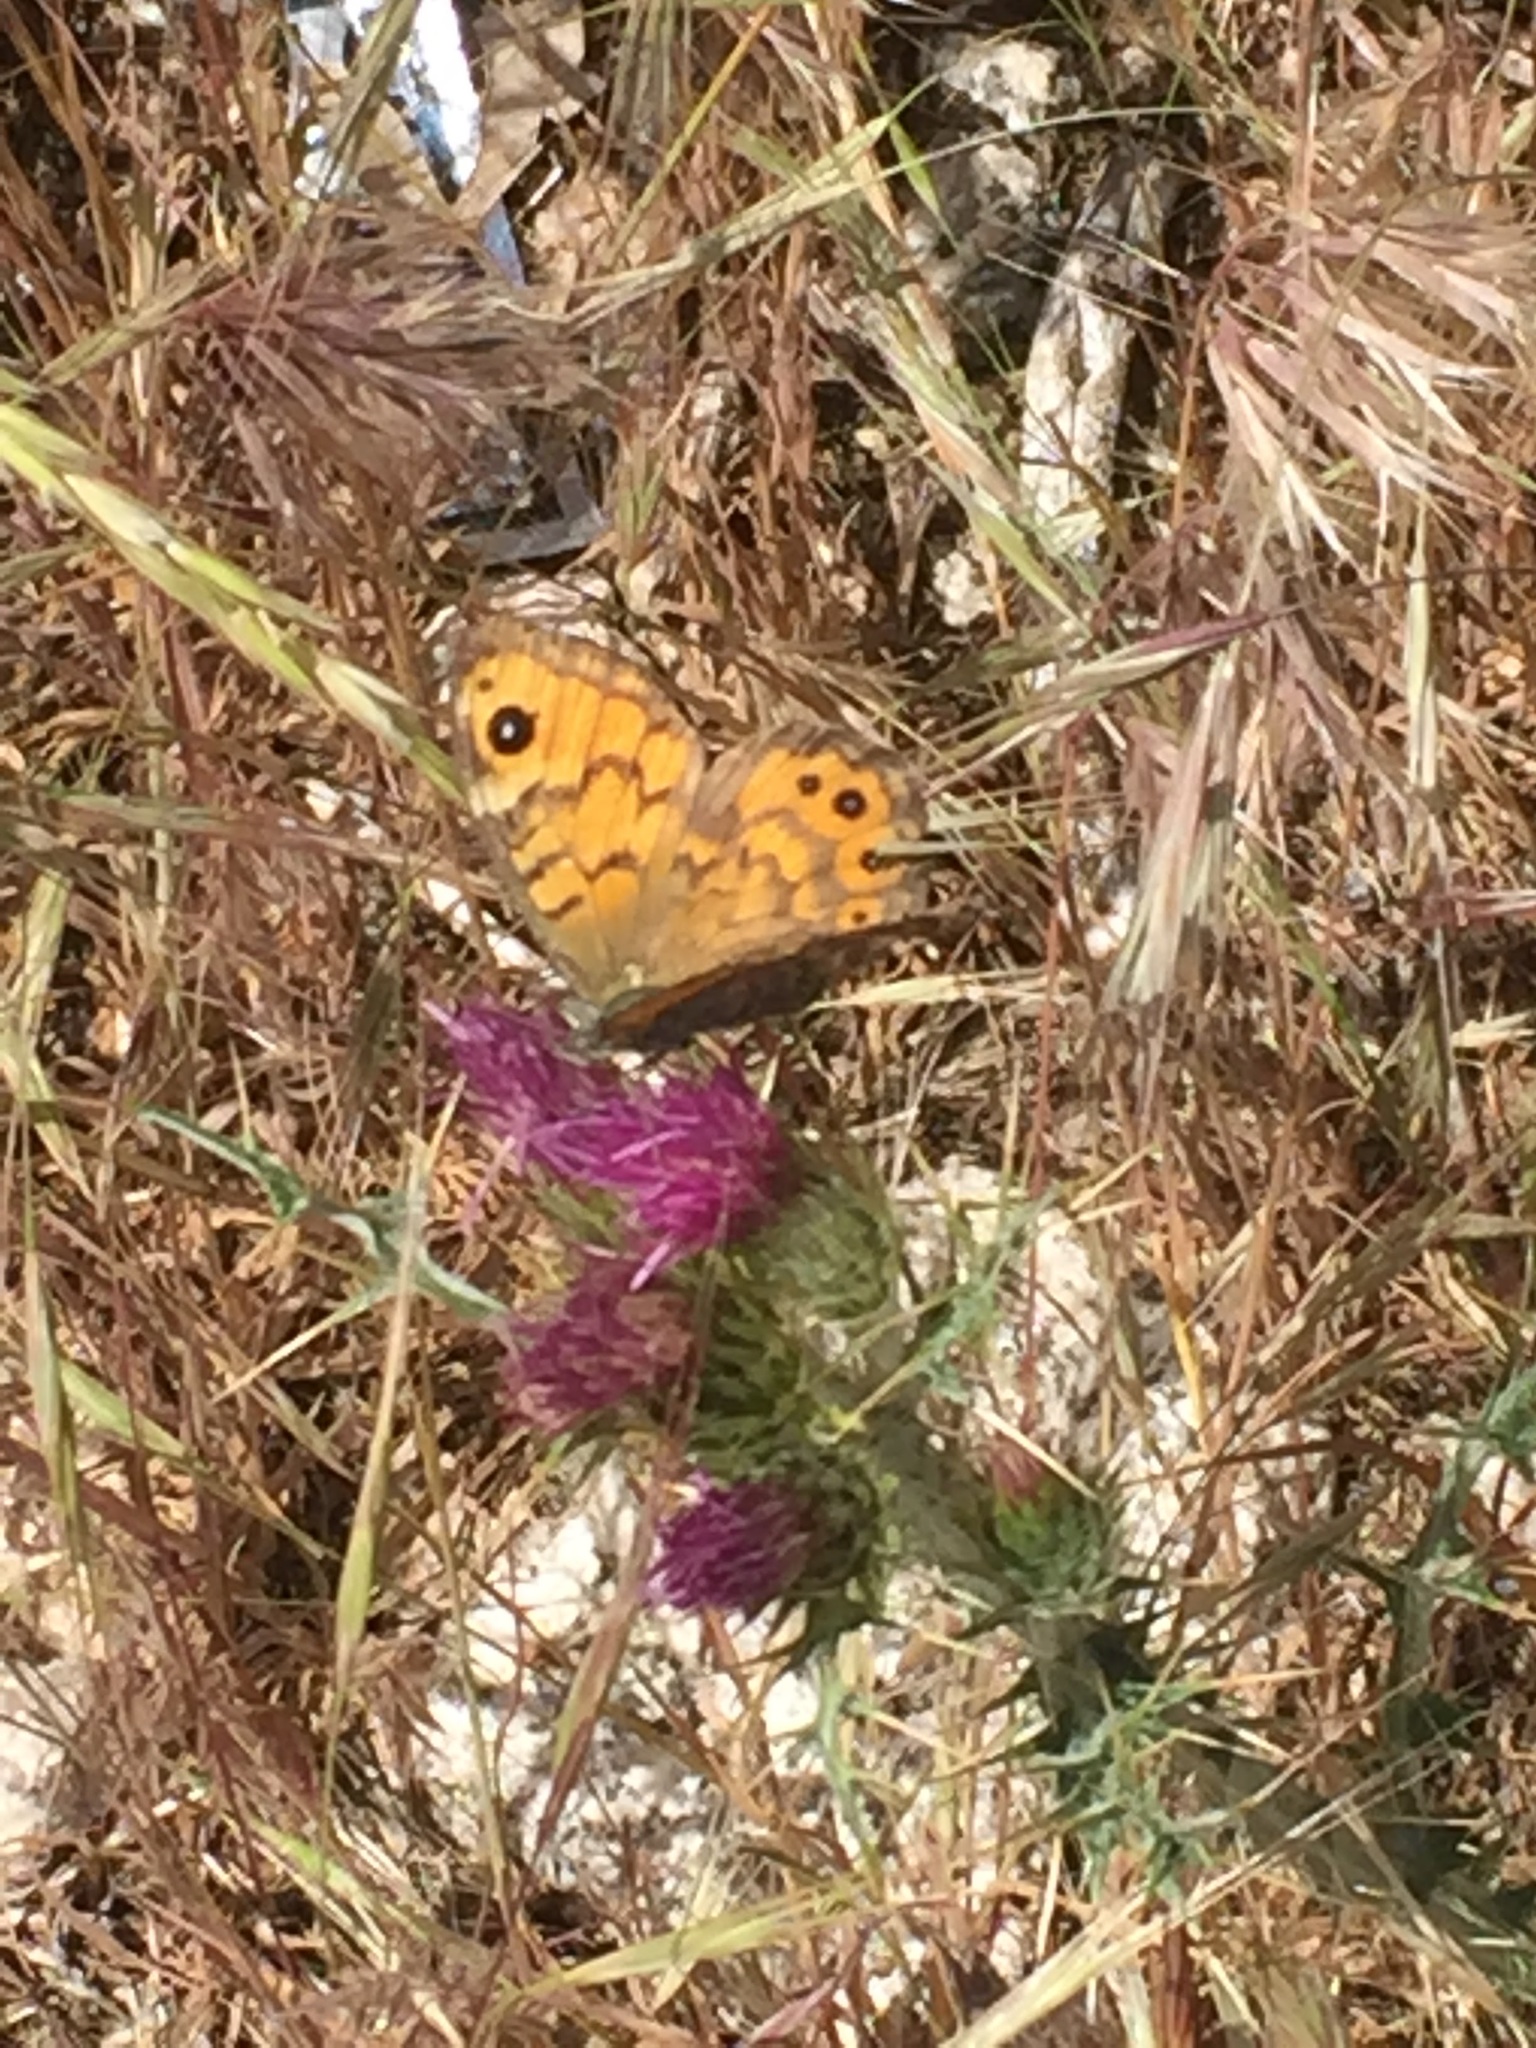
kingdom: Animalia
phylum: Arthropoda
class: Insecta
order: Lepidoptera
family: Nymphalidae
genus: Pararge
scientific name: Pararge Lasiommata megera
